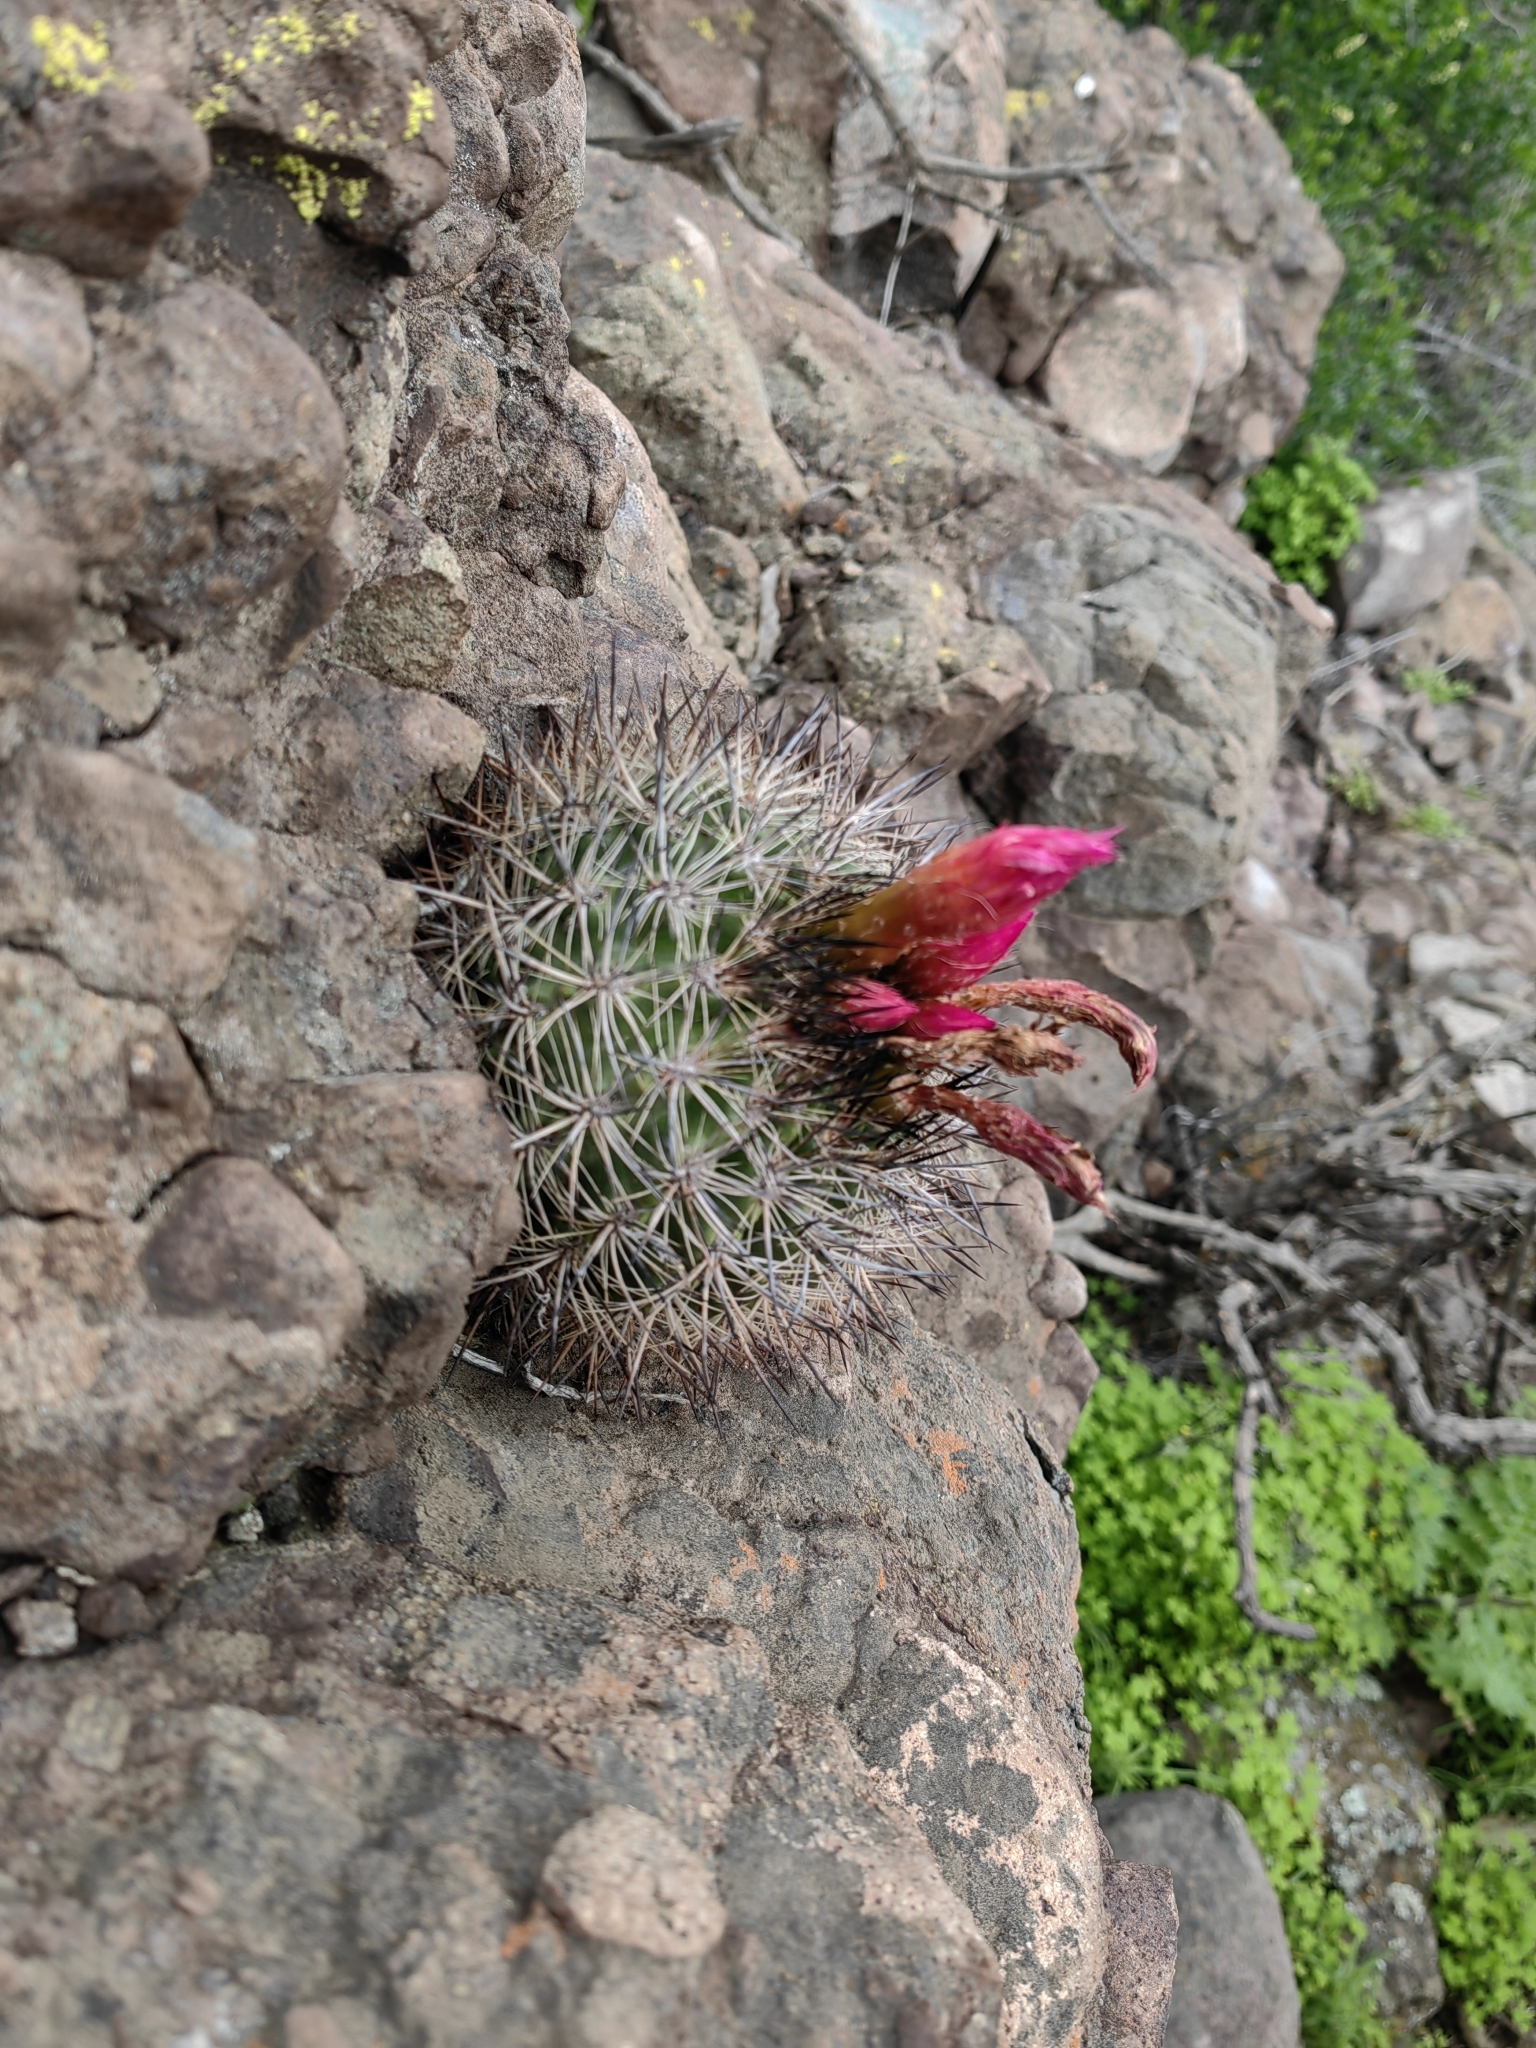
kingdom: Plantae
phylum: Tracheophyta
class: Magnoliopsida
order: Caryophyllales
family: Cactaceae
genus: Eriosyce
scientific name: Eriosyce coimasensis
